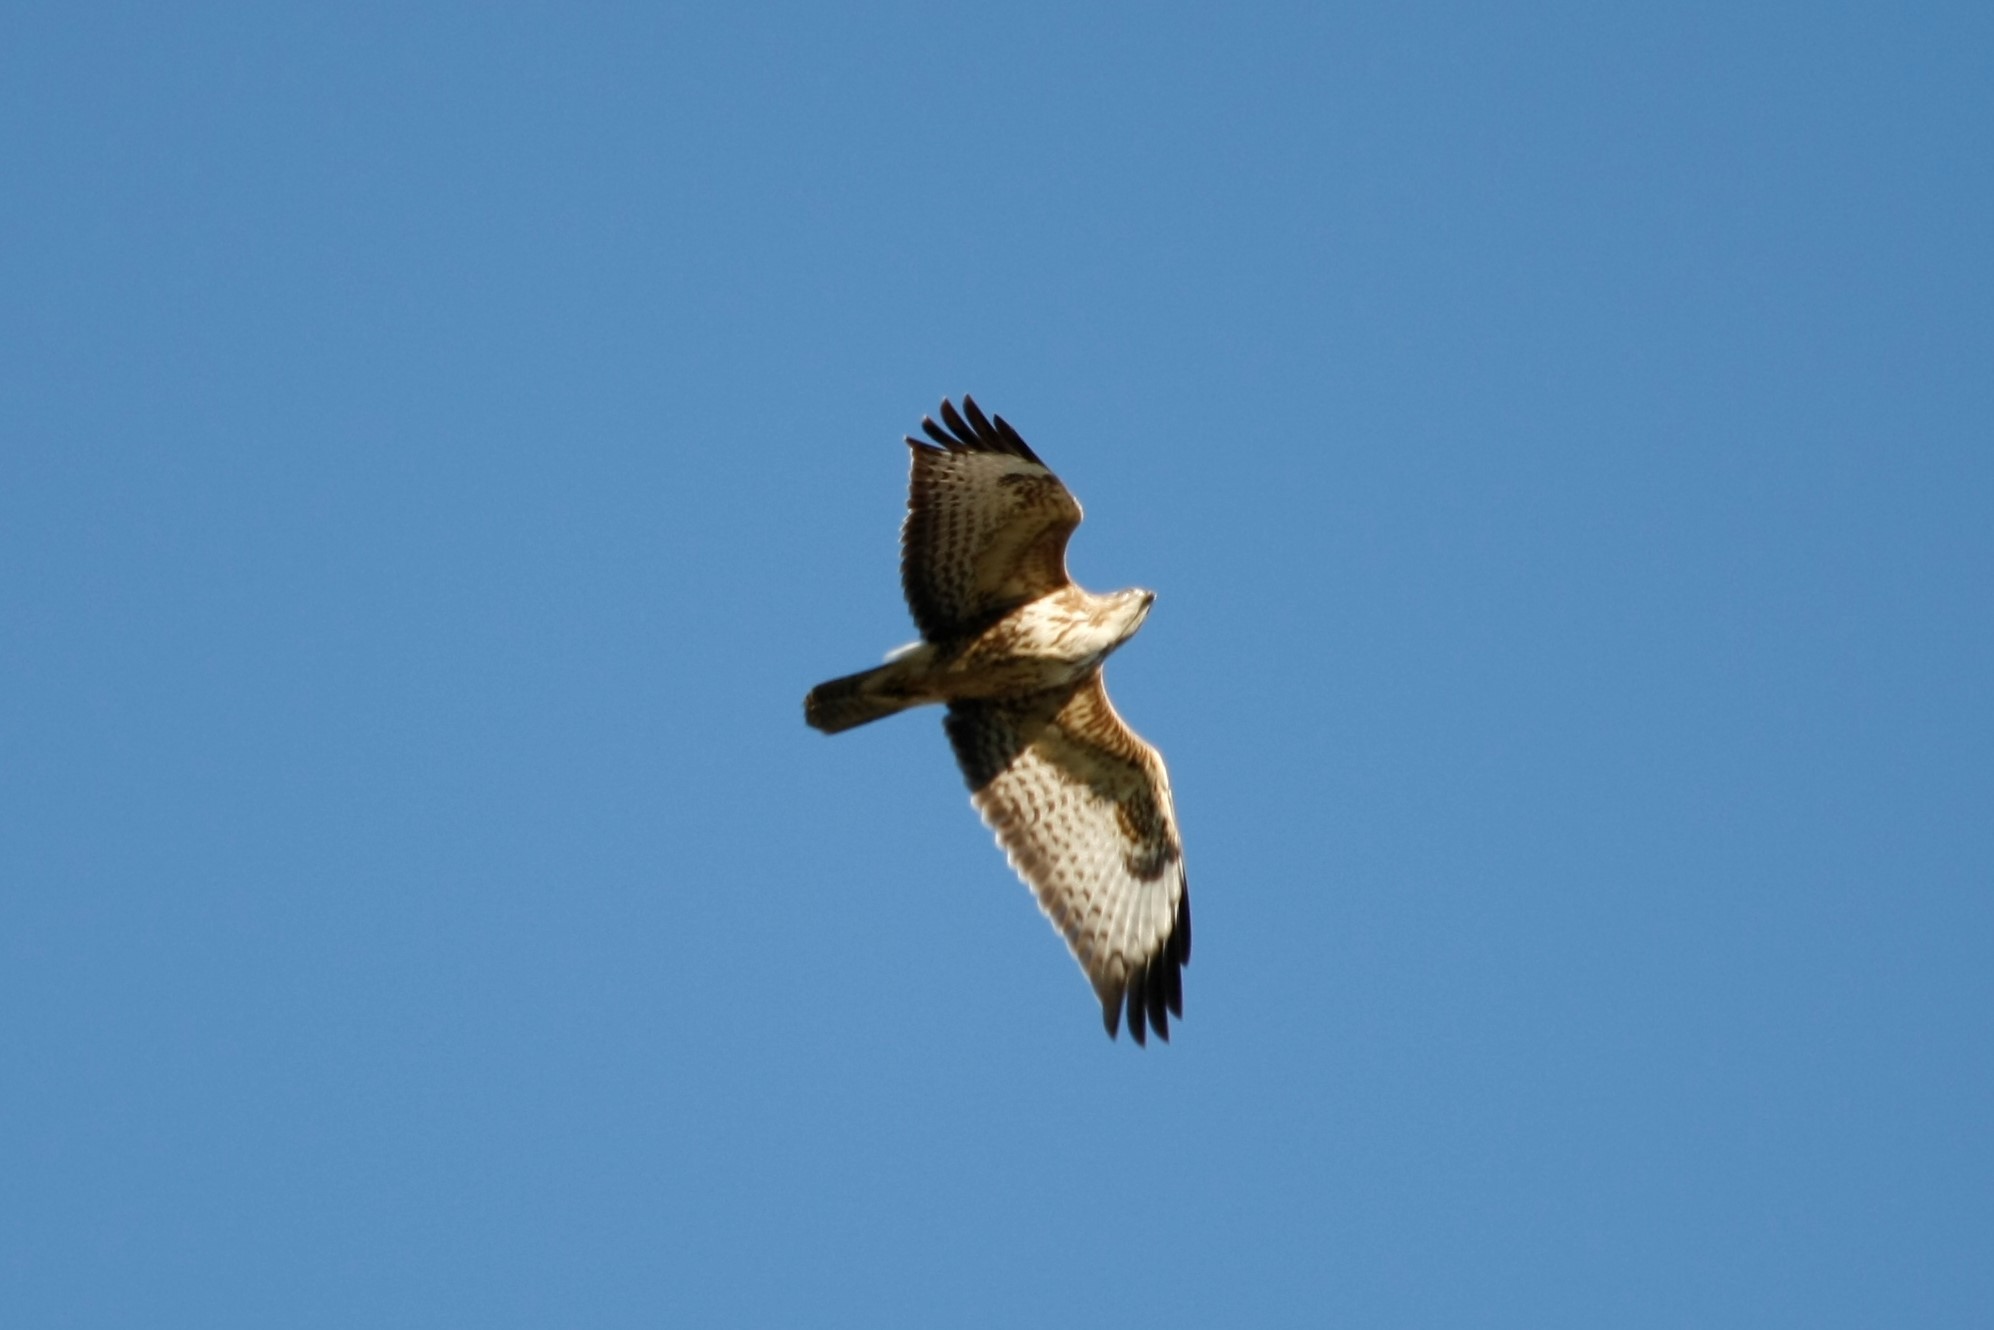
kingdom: Animalia
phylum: Chordata
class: Aves
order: Accipitriformes
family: Accipitridae
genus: Buteo
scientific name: Buteo buteo
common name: Common buzzard
